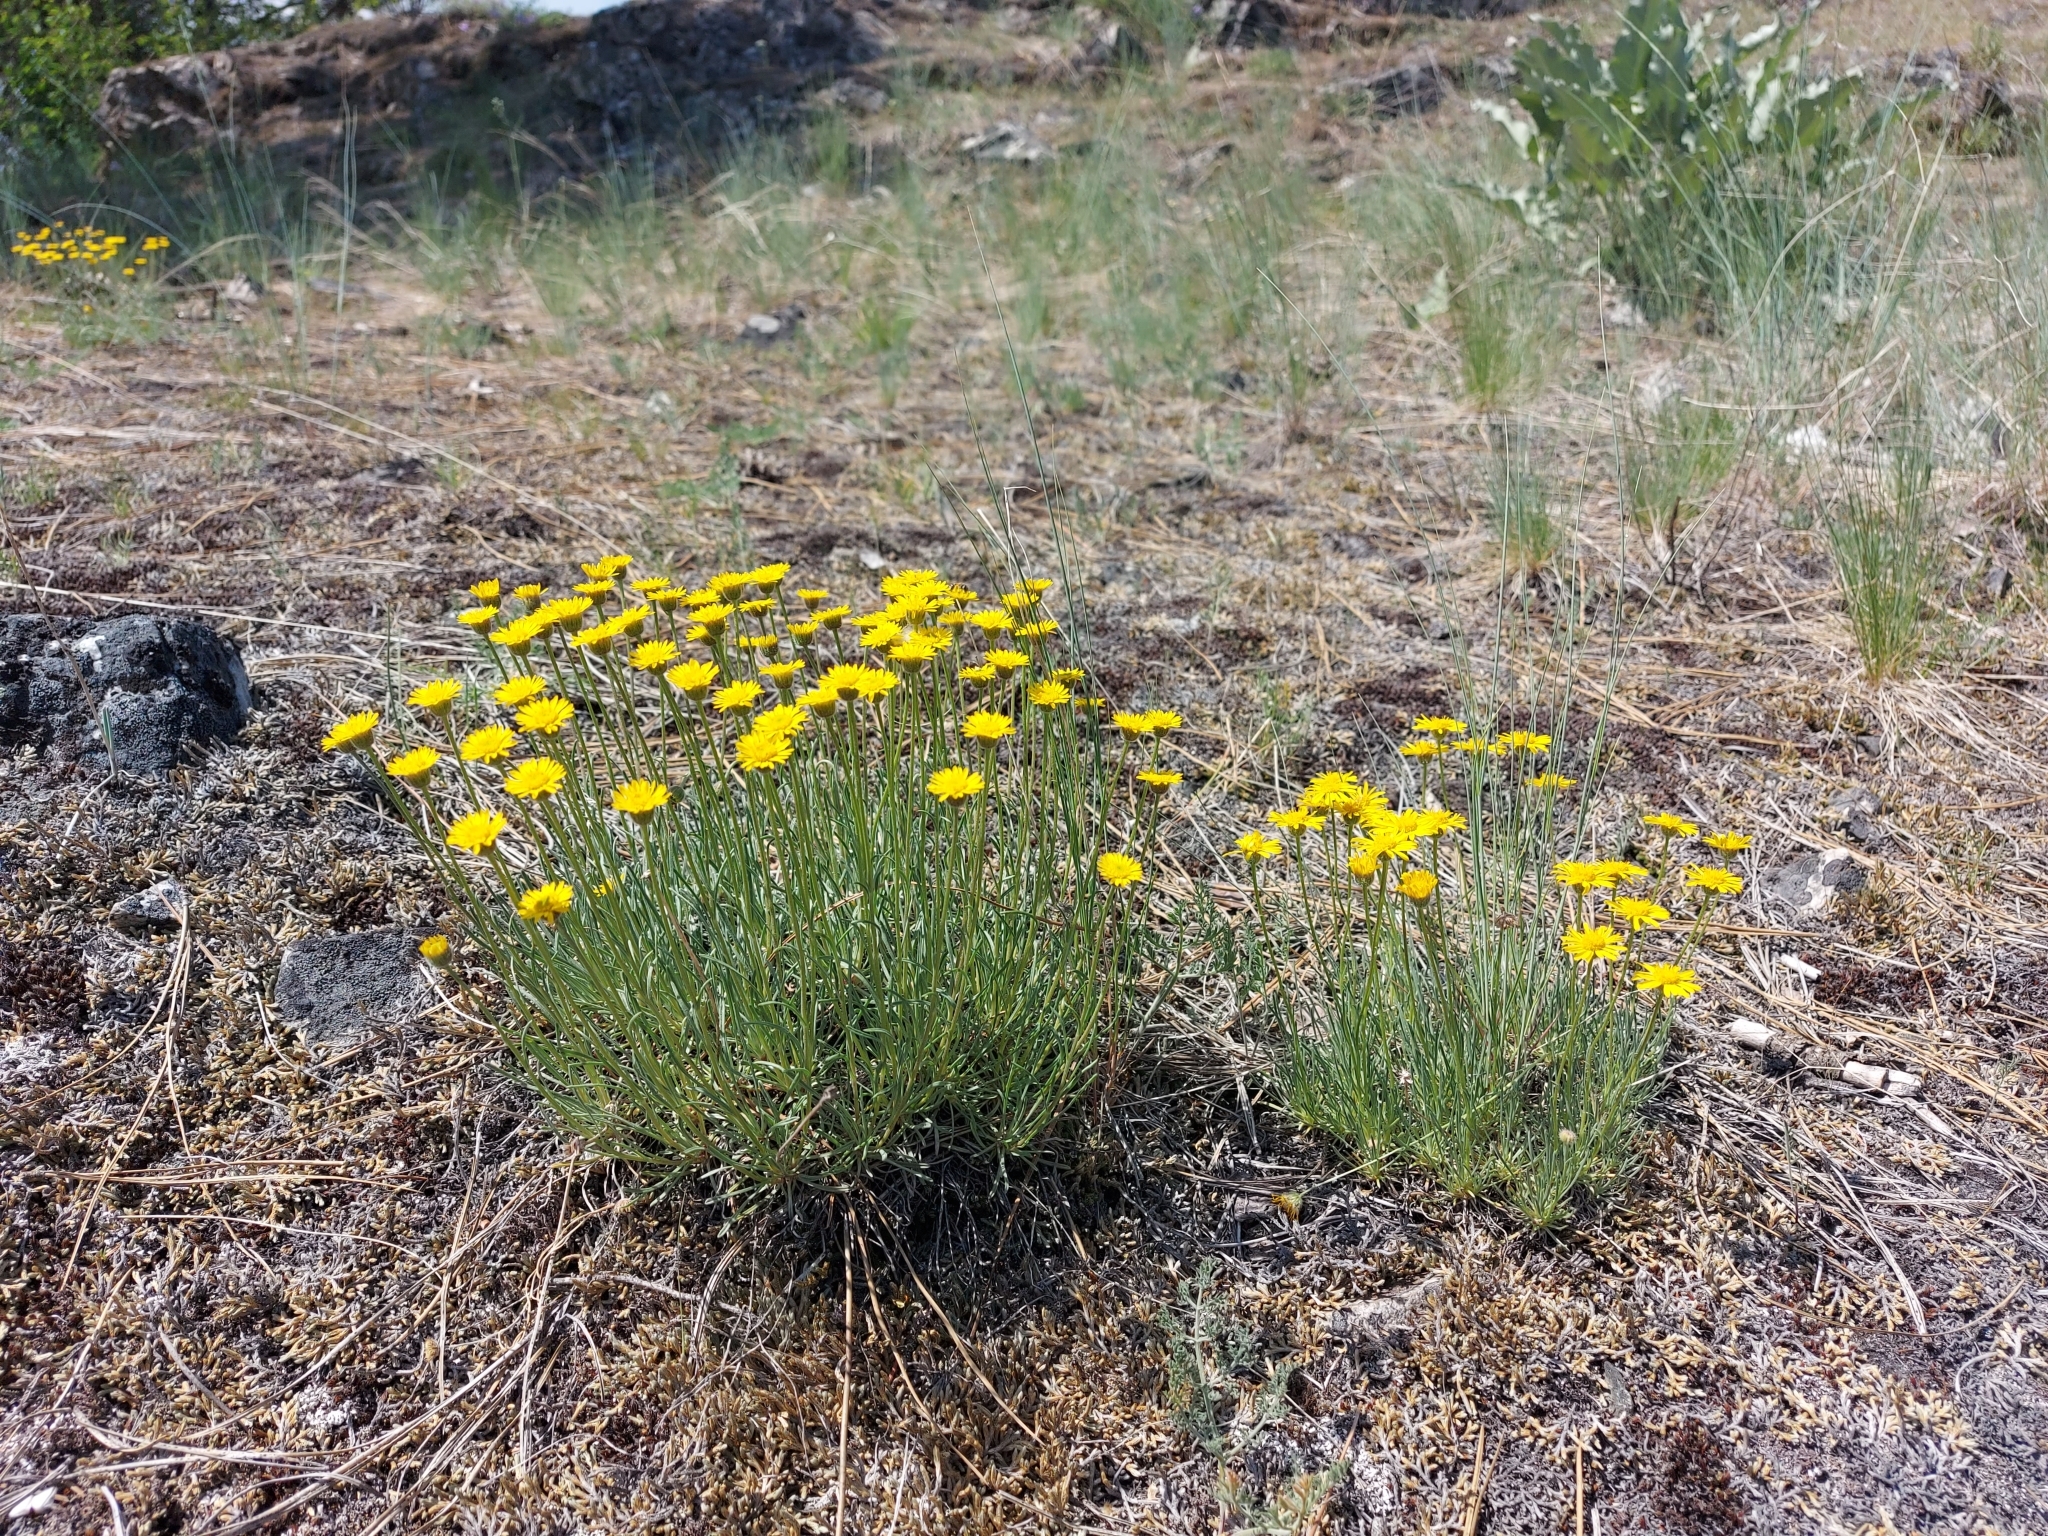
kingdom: Plantae
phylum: Tracheophyta
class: Magnoliopsida
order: Asterales
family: Asteraceae
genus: Erigeron
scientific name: Erigeron linearis
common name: Desert yellow fleabane
